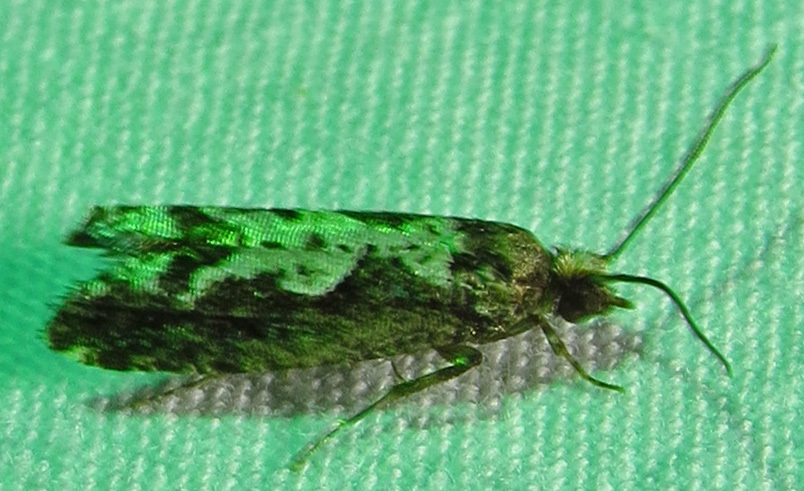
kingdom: Animalia
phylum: Arthropoda
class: Insecta
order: Lepidoptera
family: Tortricidae
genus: Chimoptesis
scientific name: Chimoptesis pennsylvaniana
